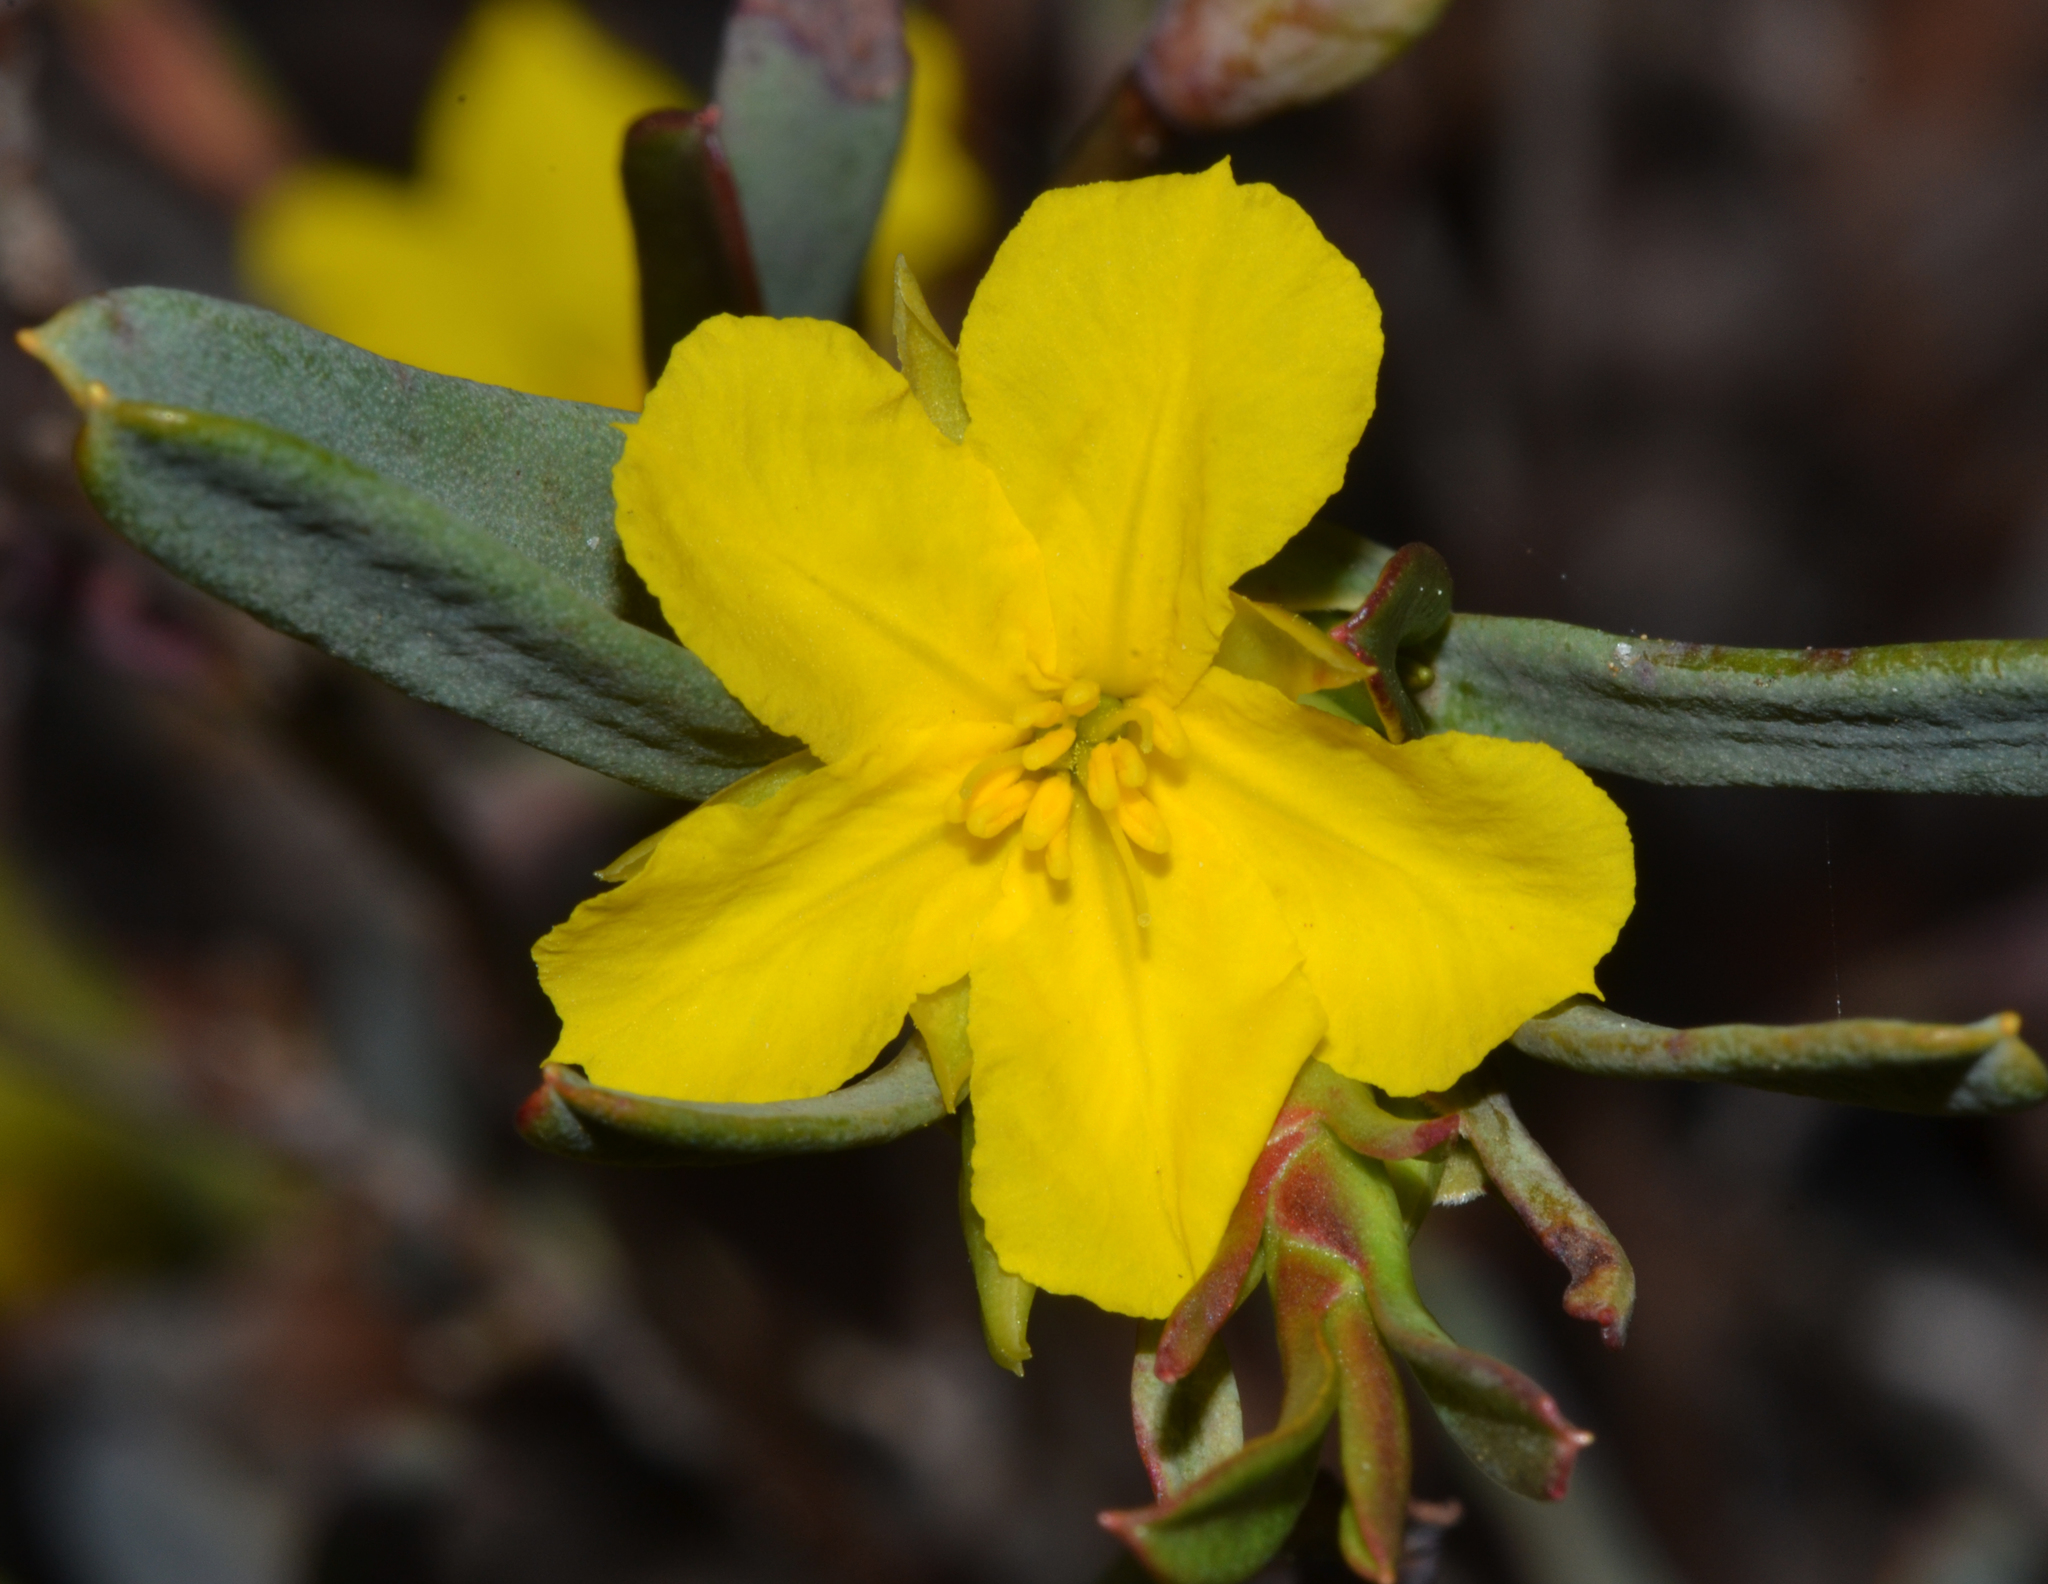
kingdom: Plantae
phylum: Tracheophyta
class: Magnoliopsida
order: Dilleniales
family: Dilleniaceae
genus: Hibbertia
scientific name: Hibbertia subvaginata
